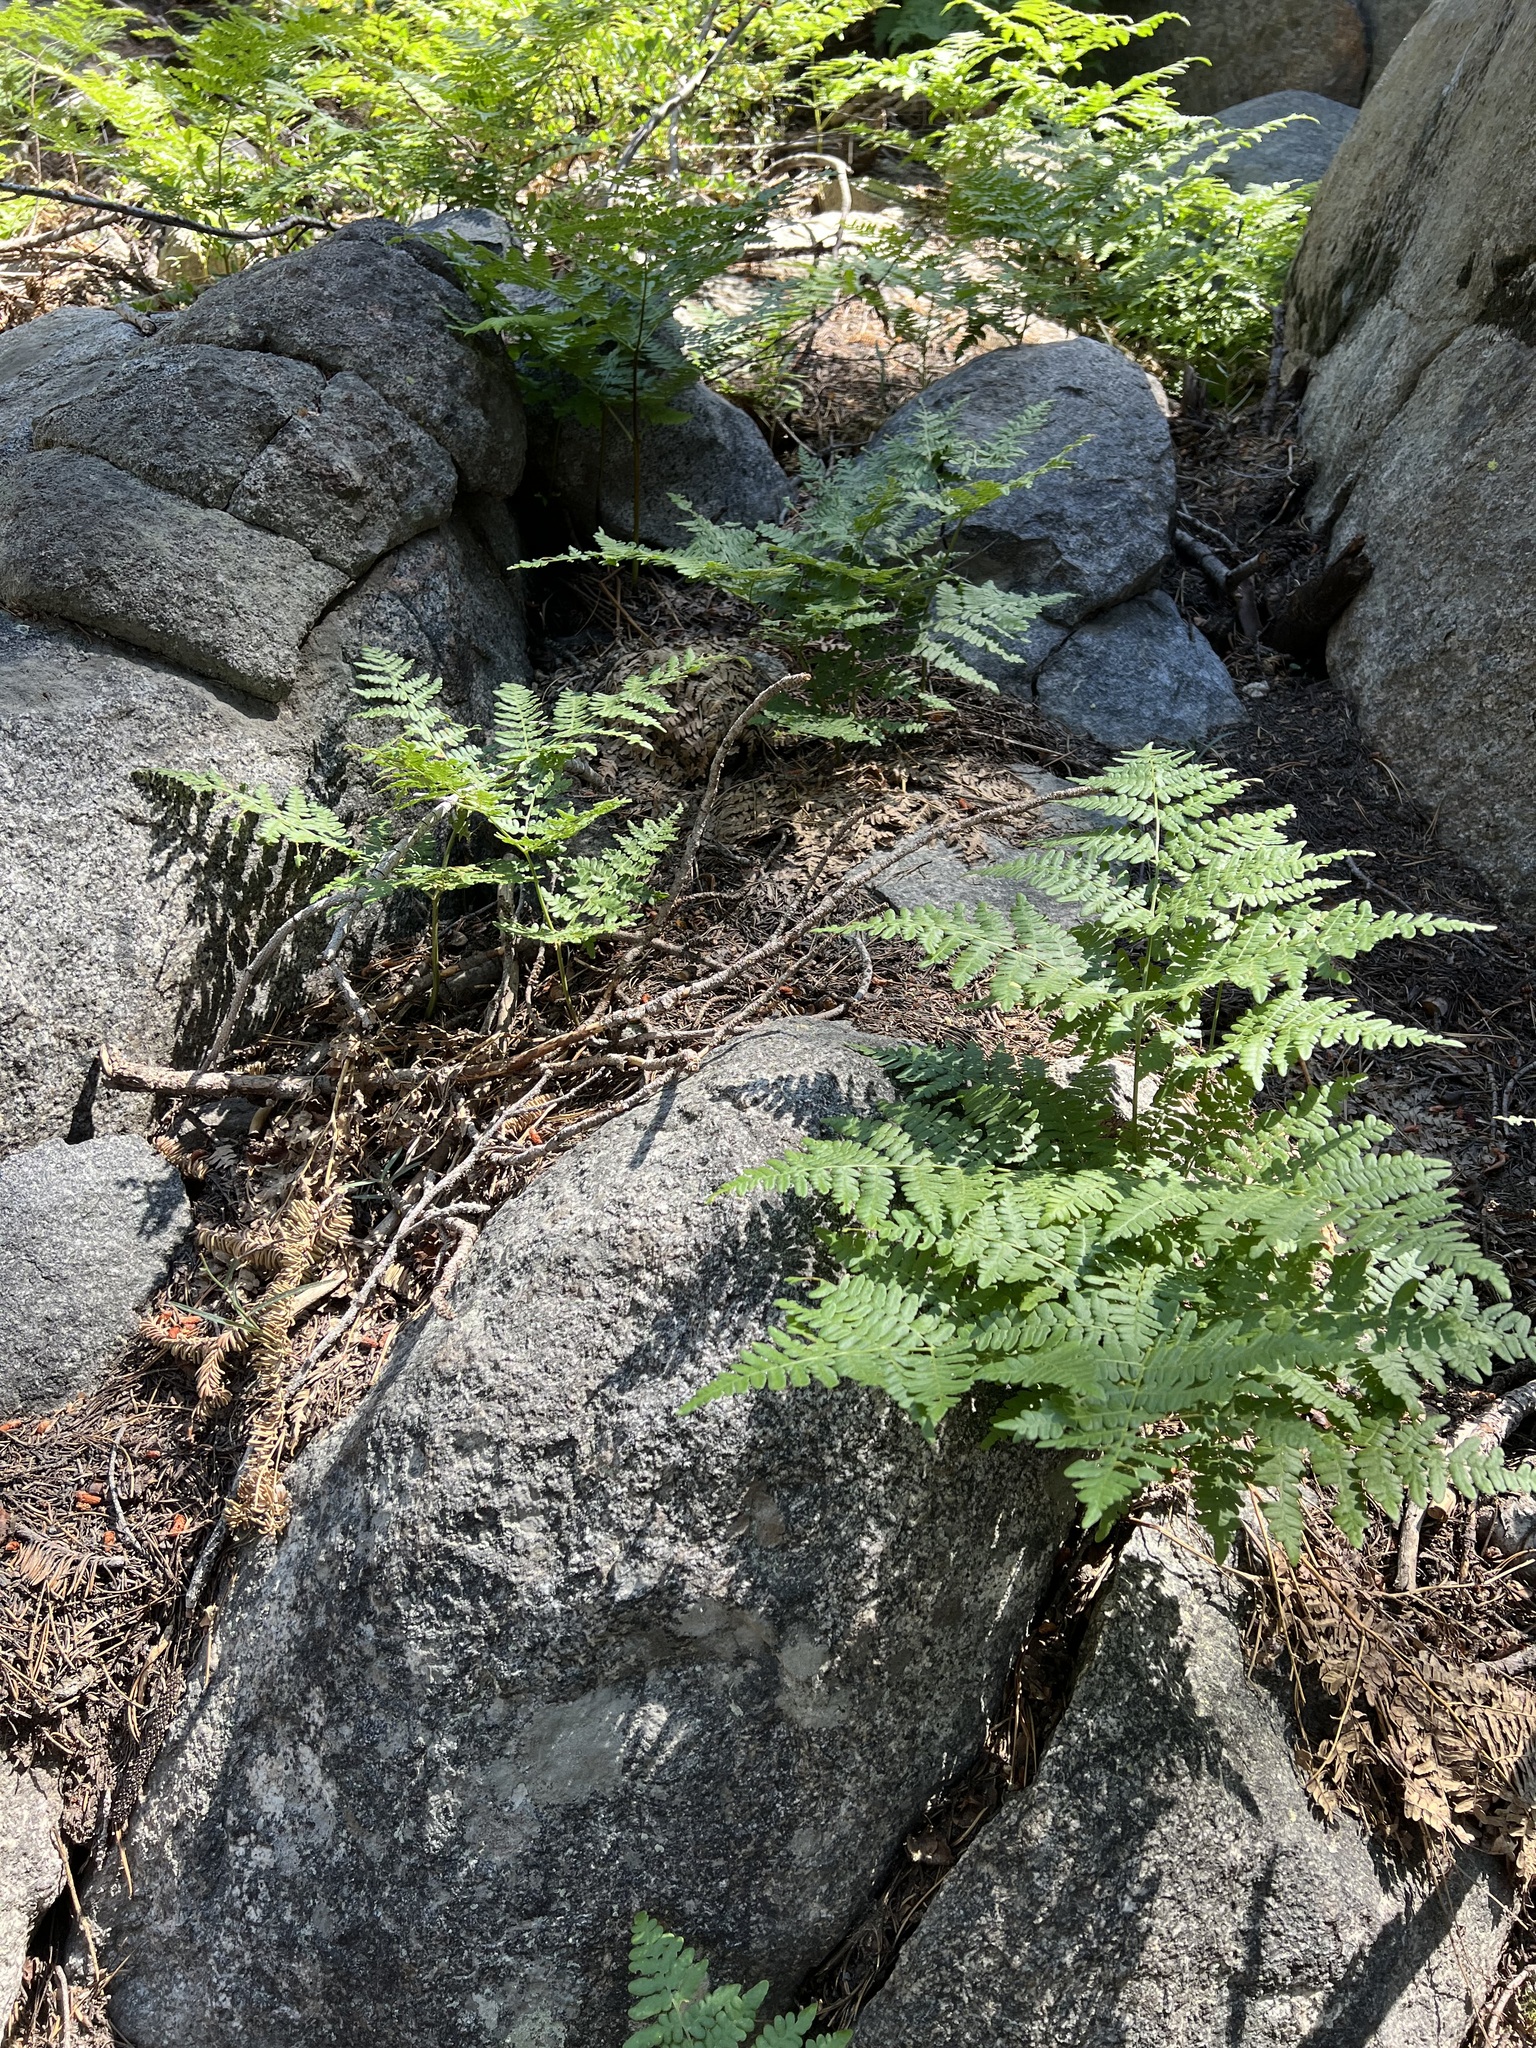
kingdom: Plantae
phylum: Tracheophyta
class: Polypodiopsida
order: Polypodiales
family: Dennstaedtiaceae
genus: Pteridium
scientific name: Pteridium aquilinum
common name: Bracken
